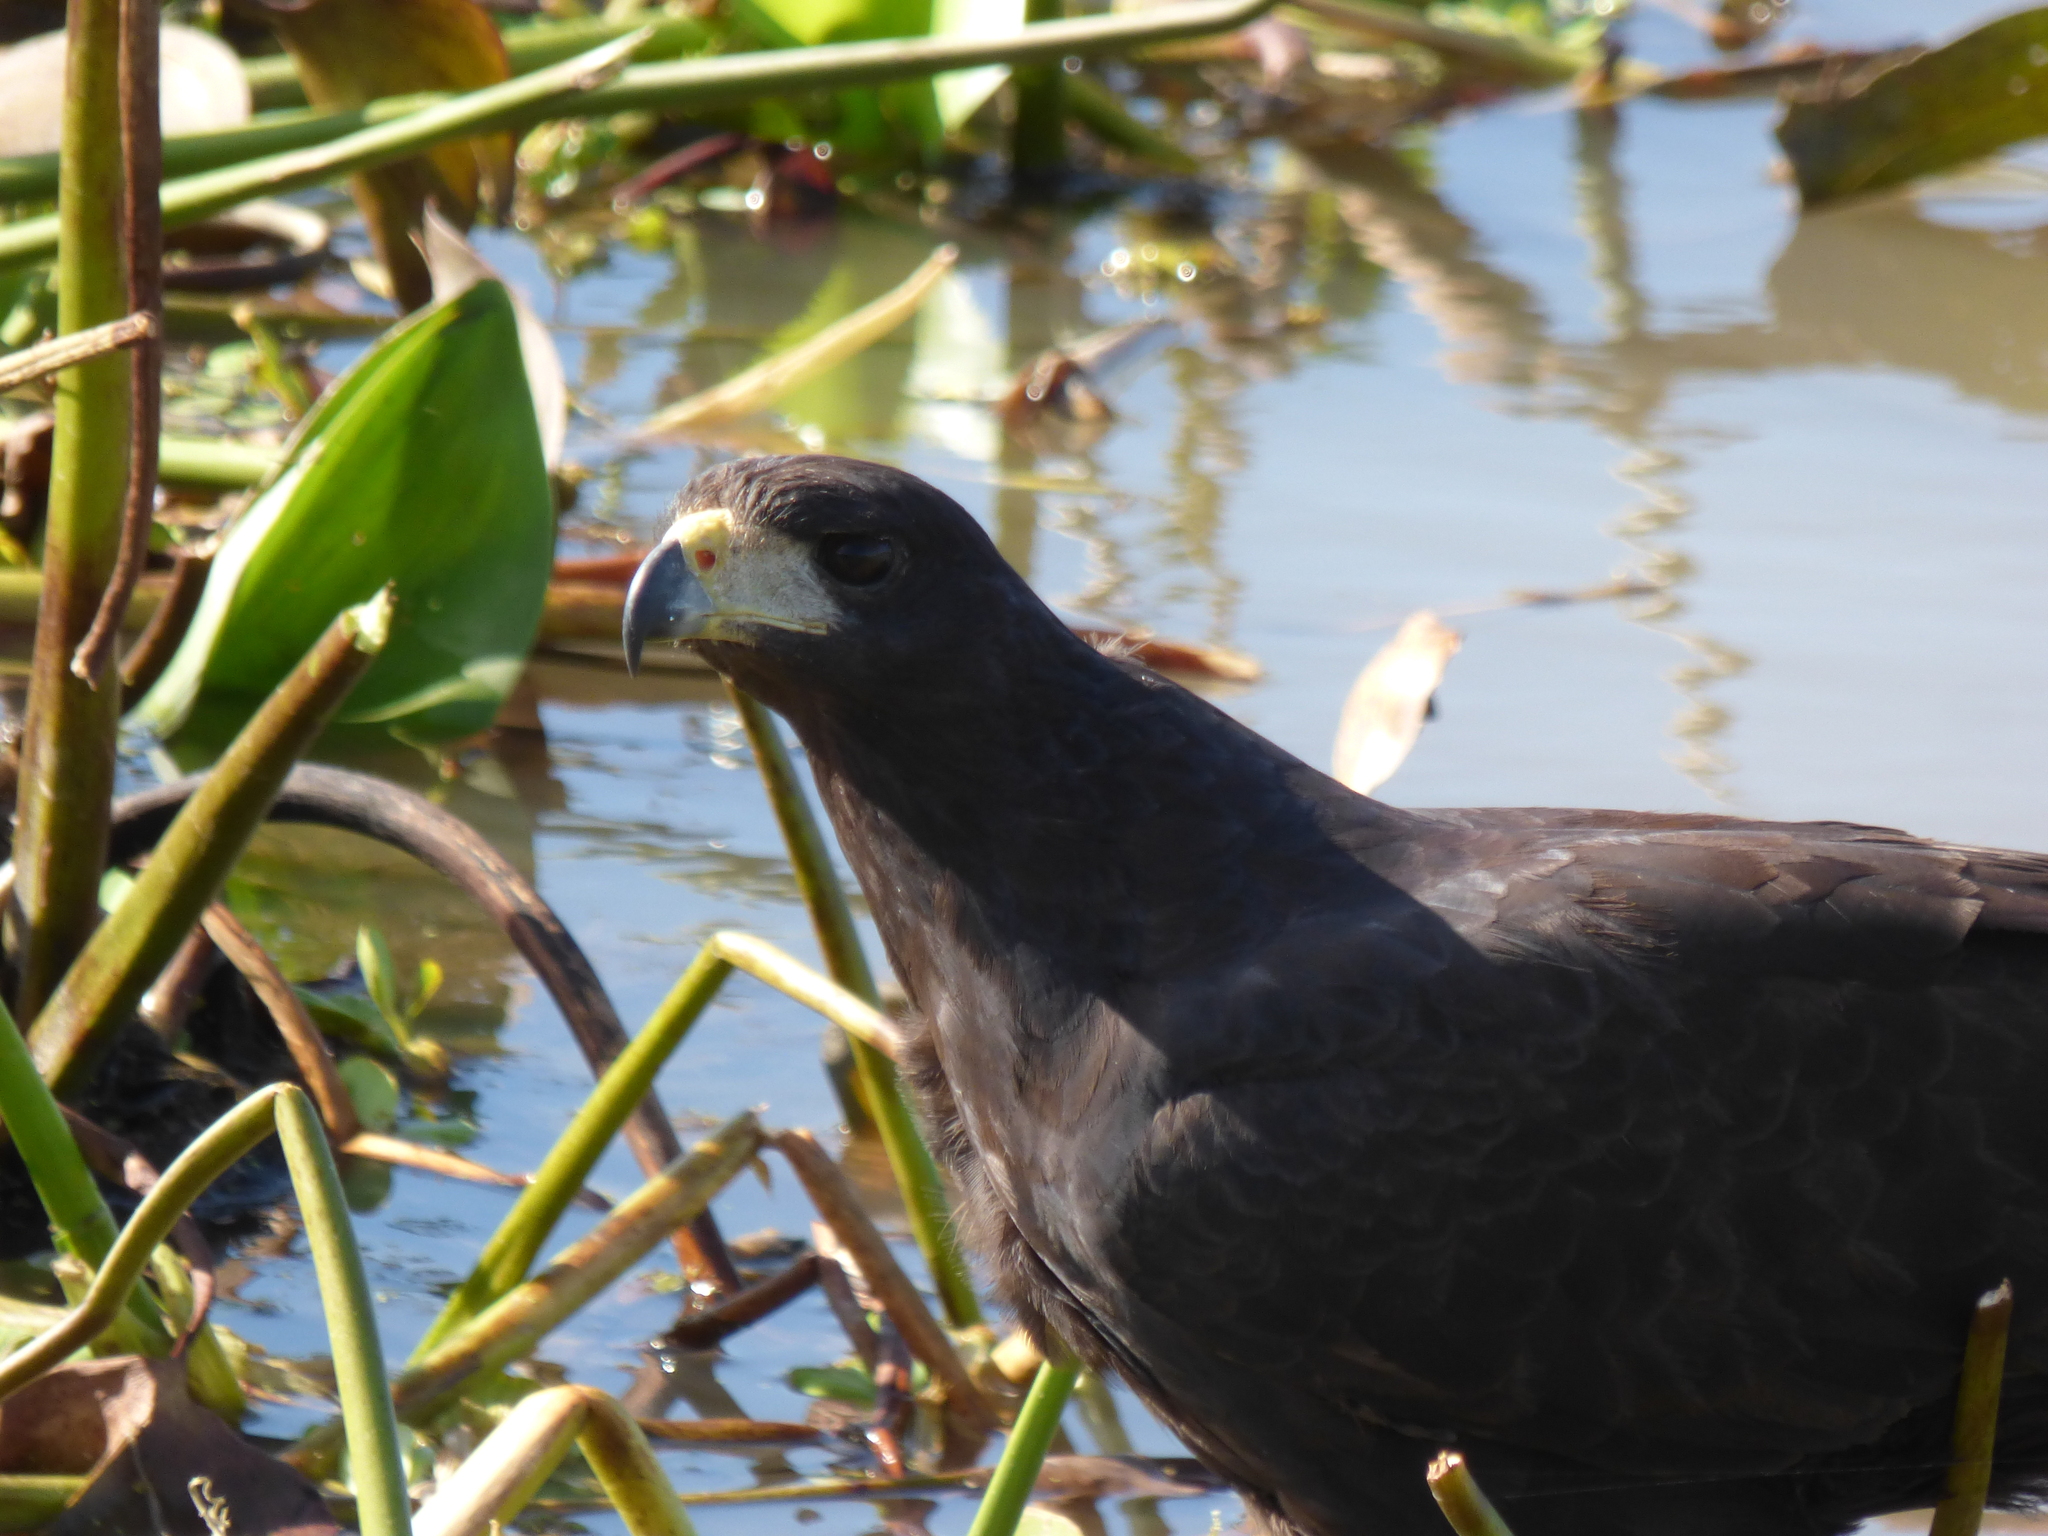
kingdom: Animalia
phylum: Chordata
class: Aves
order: Accipitriformes
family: Accipitridae
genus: Buteogallus
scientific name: Buteogallus urubitinga
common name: Great black hawk
